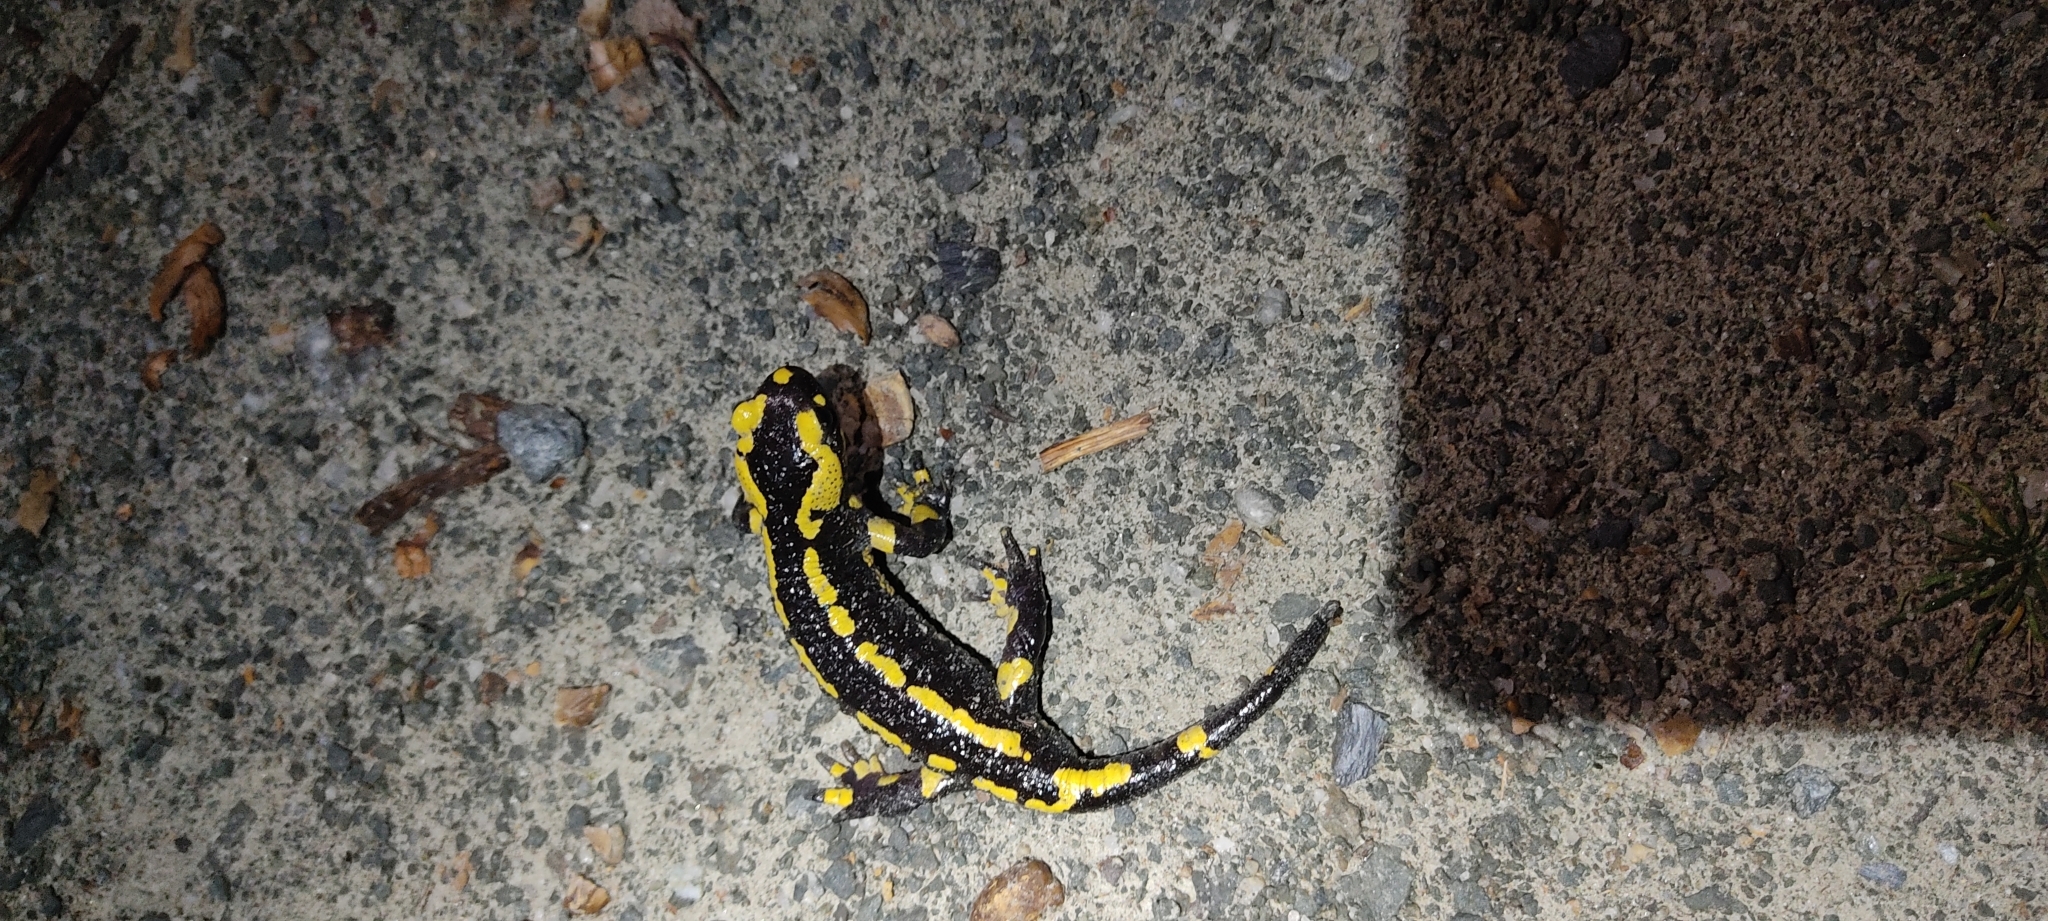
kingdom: Animalia
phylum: Chordata
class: Amphibia
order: Caudata
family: Salamandridae
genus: Salamandra
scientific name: Salamandra salamandra
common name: Fire salamander
